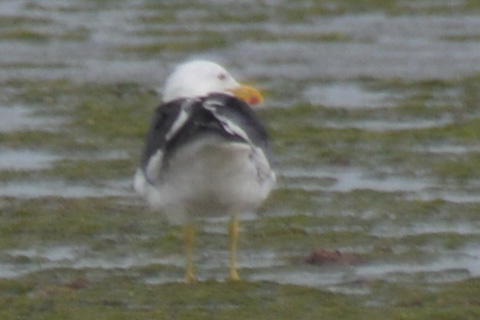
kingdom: Animalia
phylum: Chordata
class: Aves
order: Charadriiformes
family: Laridae
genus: Larus
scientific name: Larus dominicanus
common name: Kelp gull
